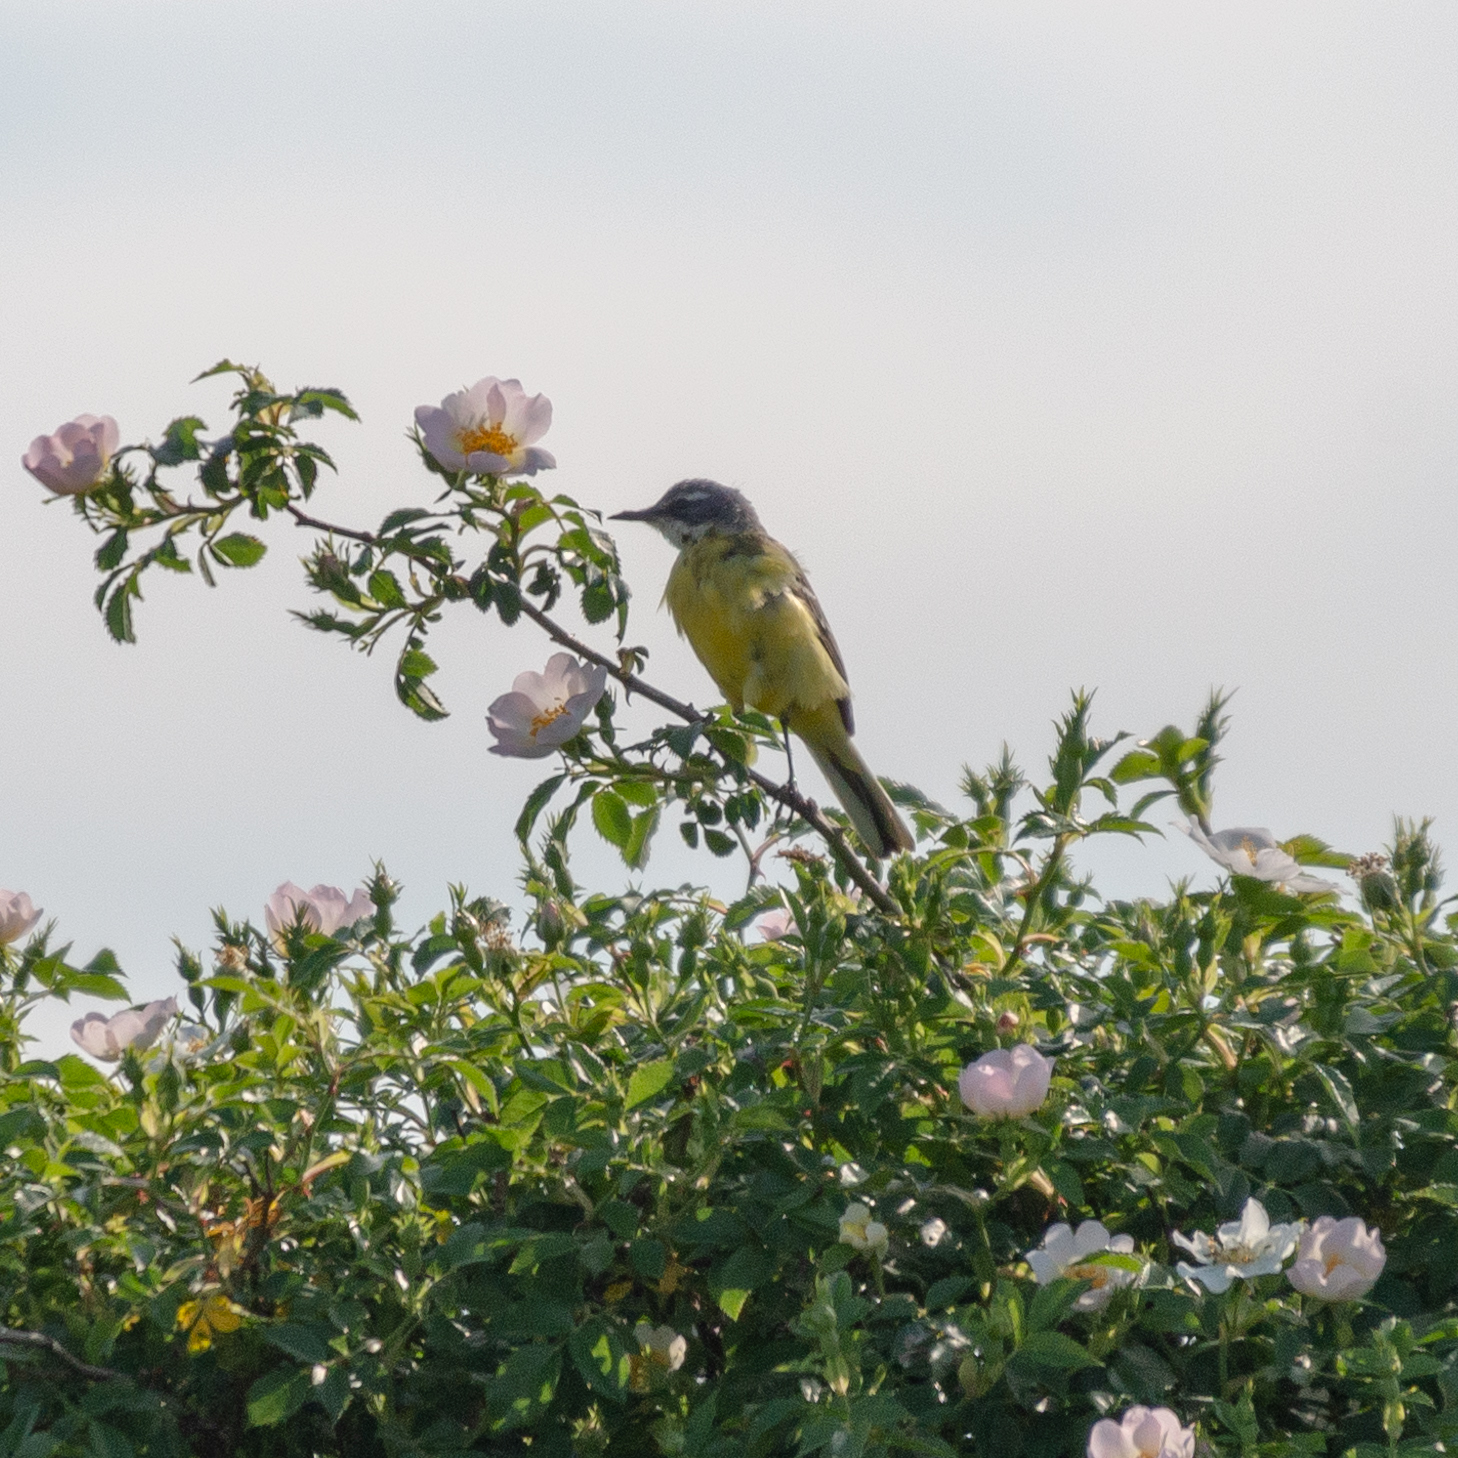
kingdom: Animalia
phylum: Chordata
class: Aves
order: Passeriformes
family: Motacillidae
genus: Motacilla
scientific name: Motacilla flava
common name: Western yellow wagtail
